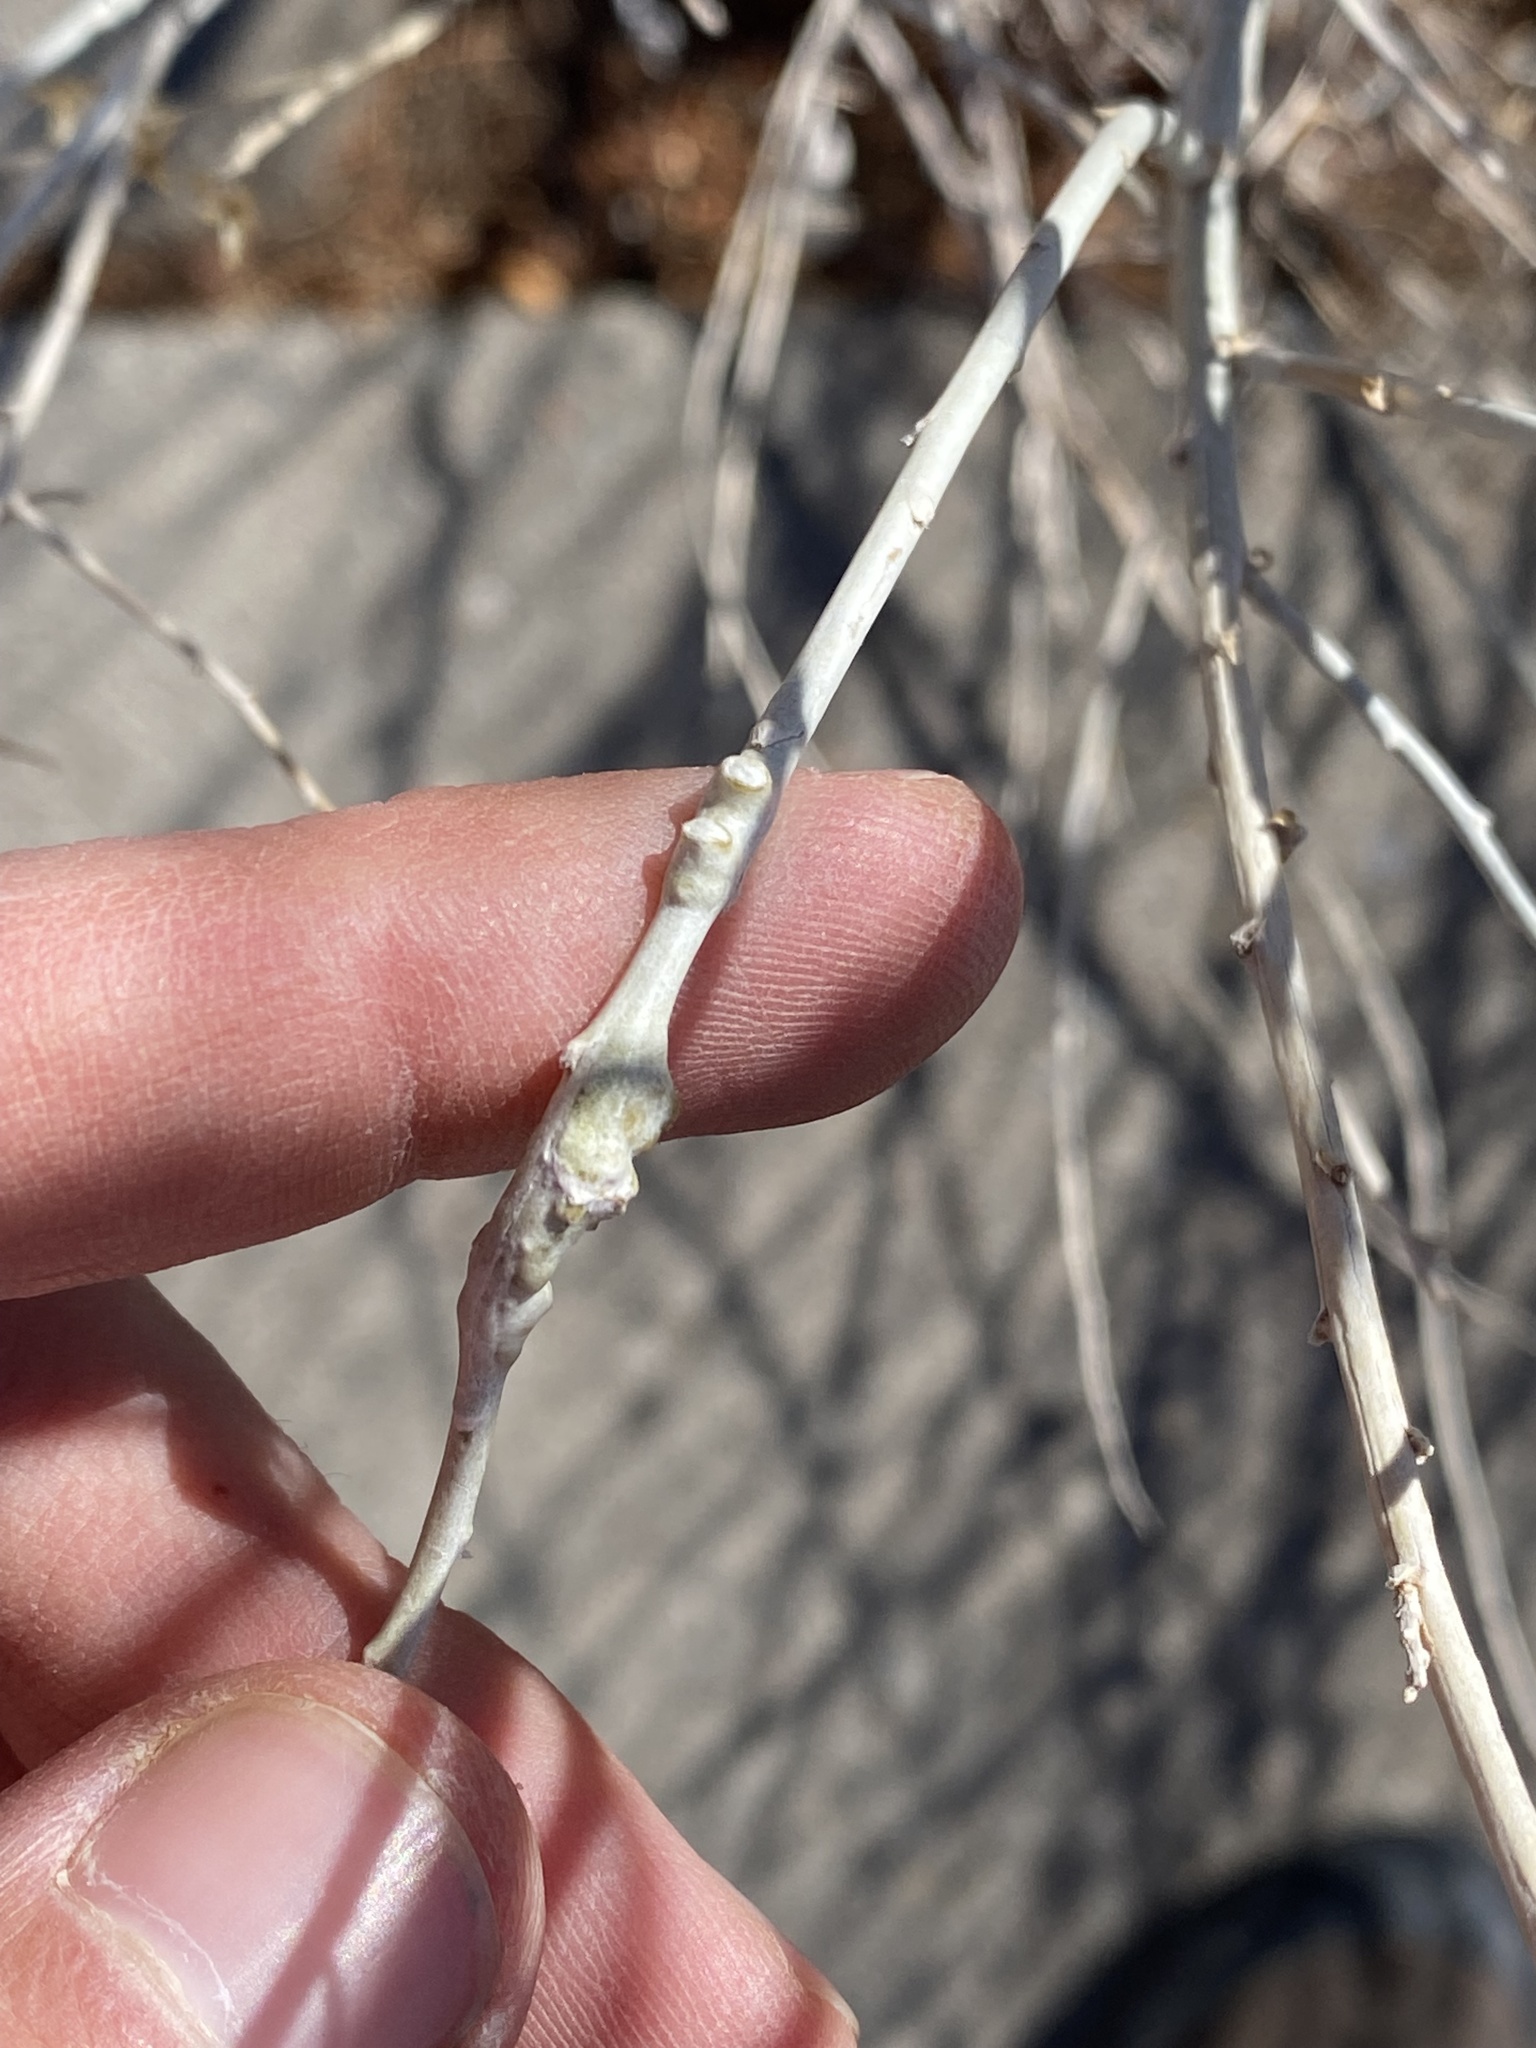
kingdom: Animalia
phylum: Arthropoda
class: Insecta
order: Diptera
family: Cecidomyiidae
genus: Rhopalomyia
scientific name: Rhopalomyia chrysothamni
